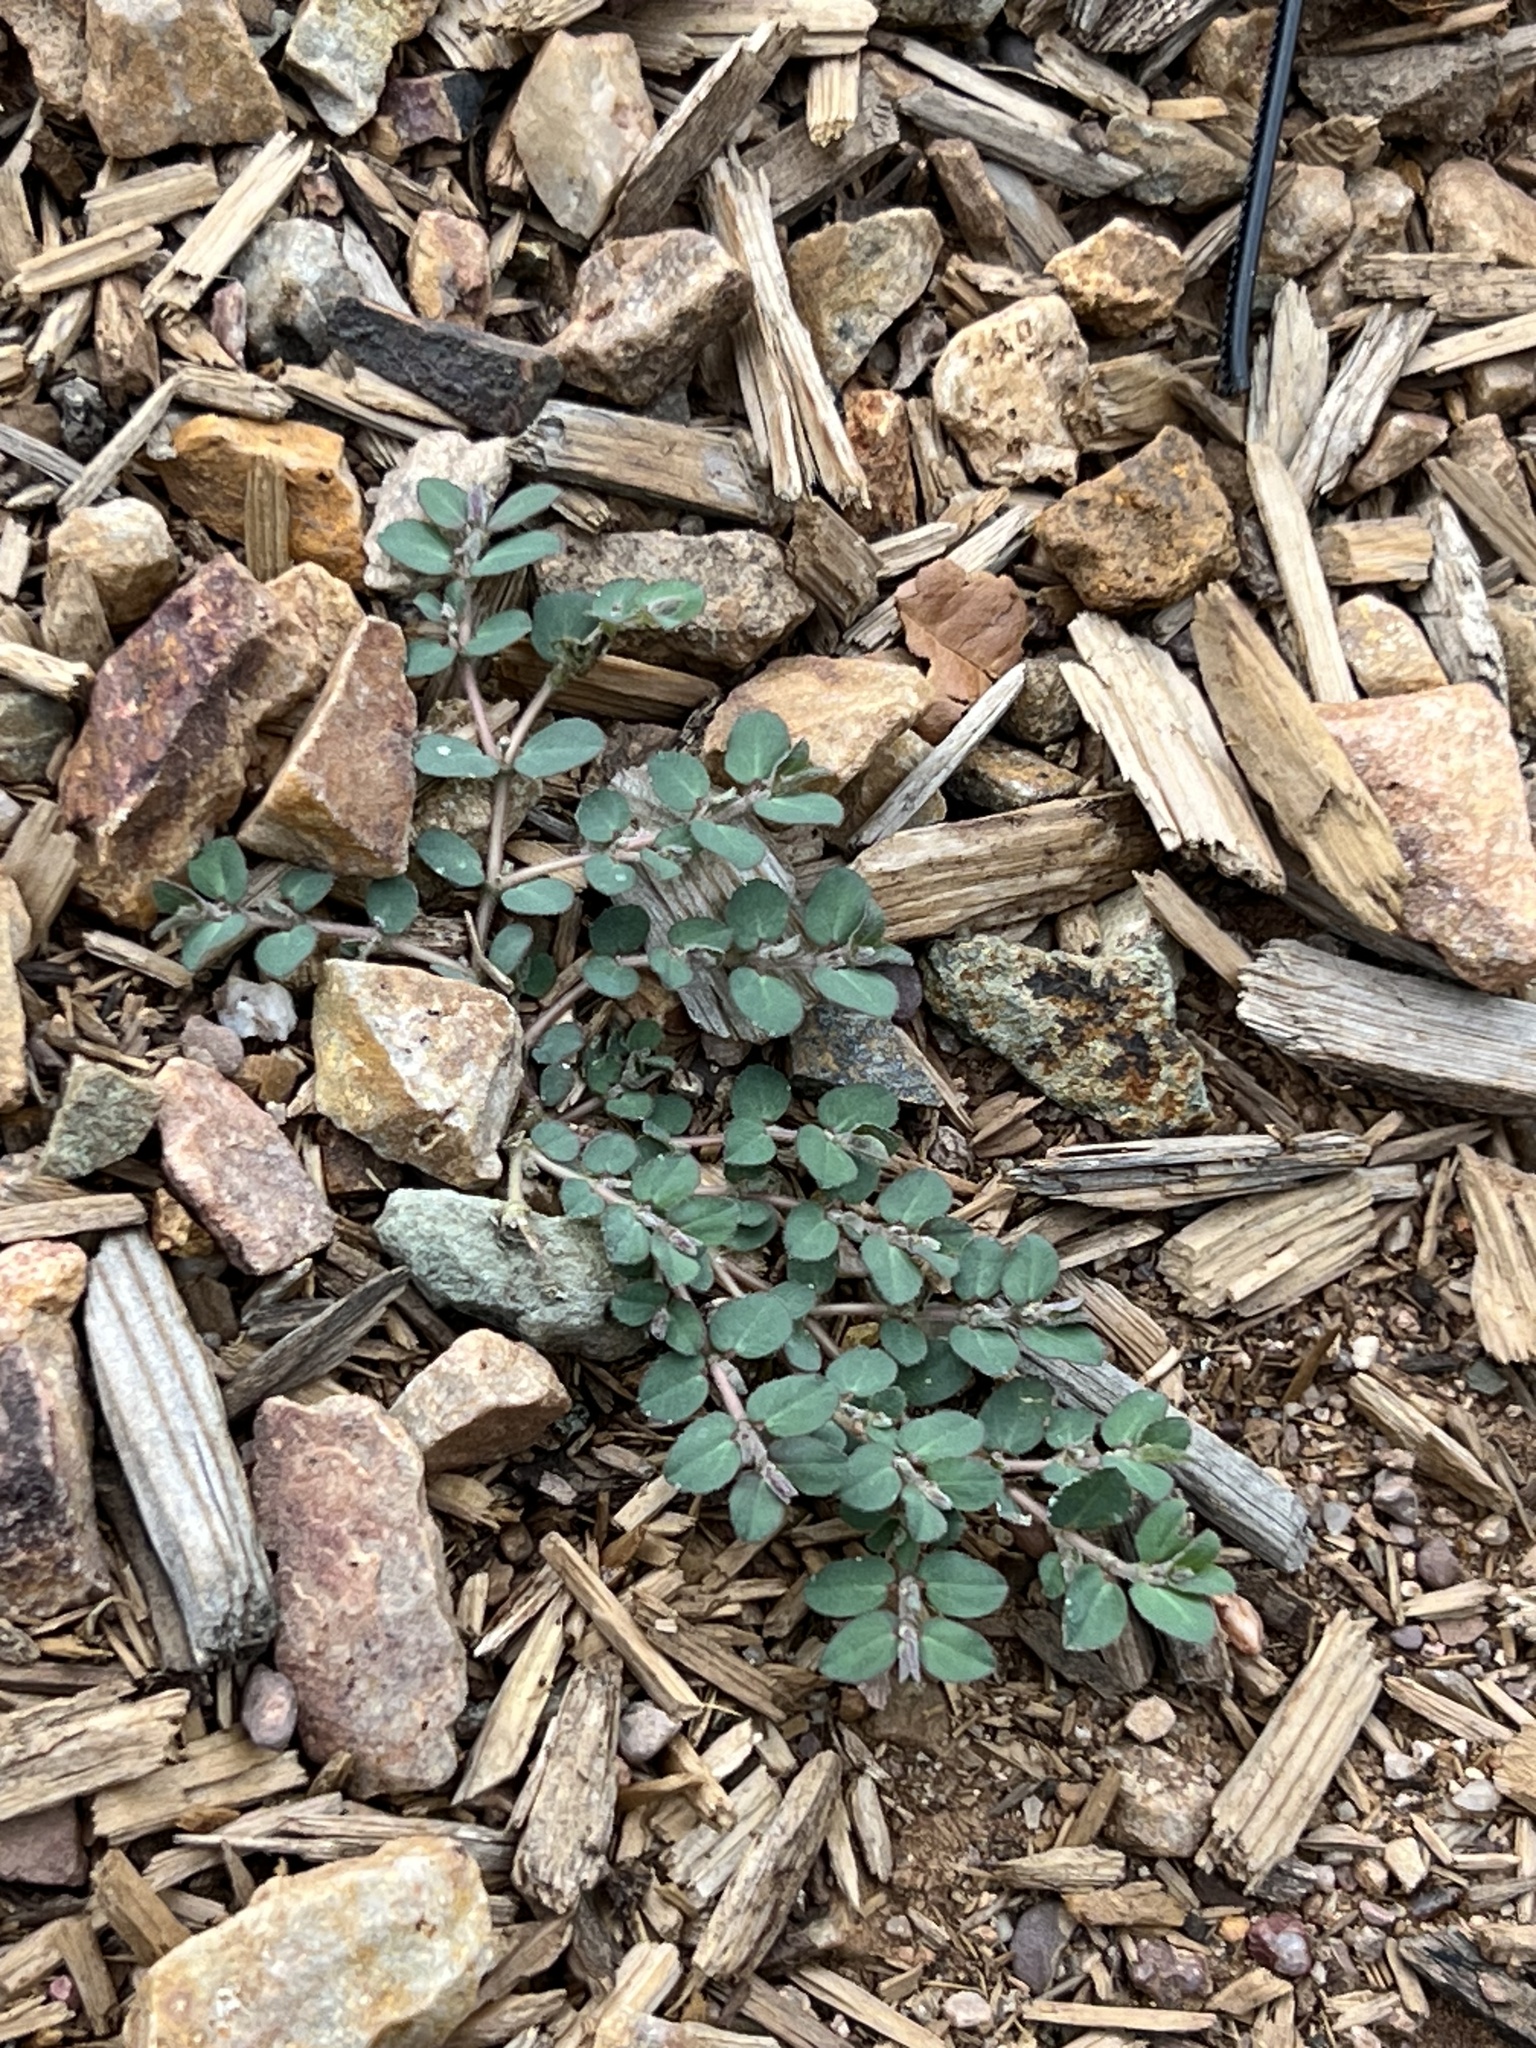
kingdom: Plantae
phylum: Tracheophyta
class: Magnoliopsida
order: Malpighiales
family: Euphorbiaceae
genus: Euphorbia
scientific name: Euphorbia prostrata
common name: Prostrate sandmat
